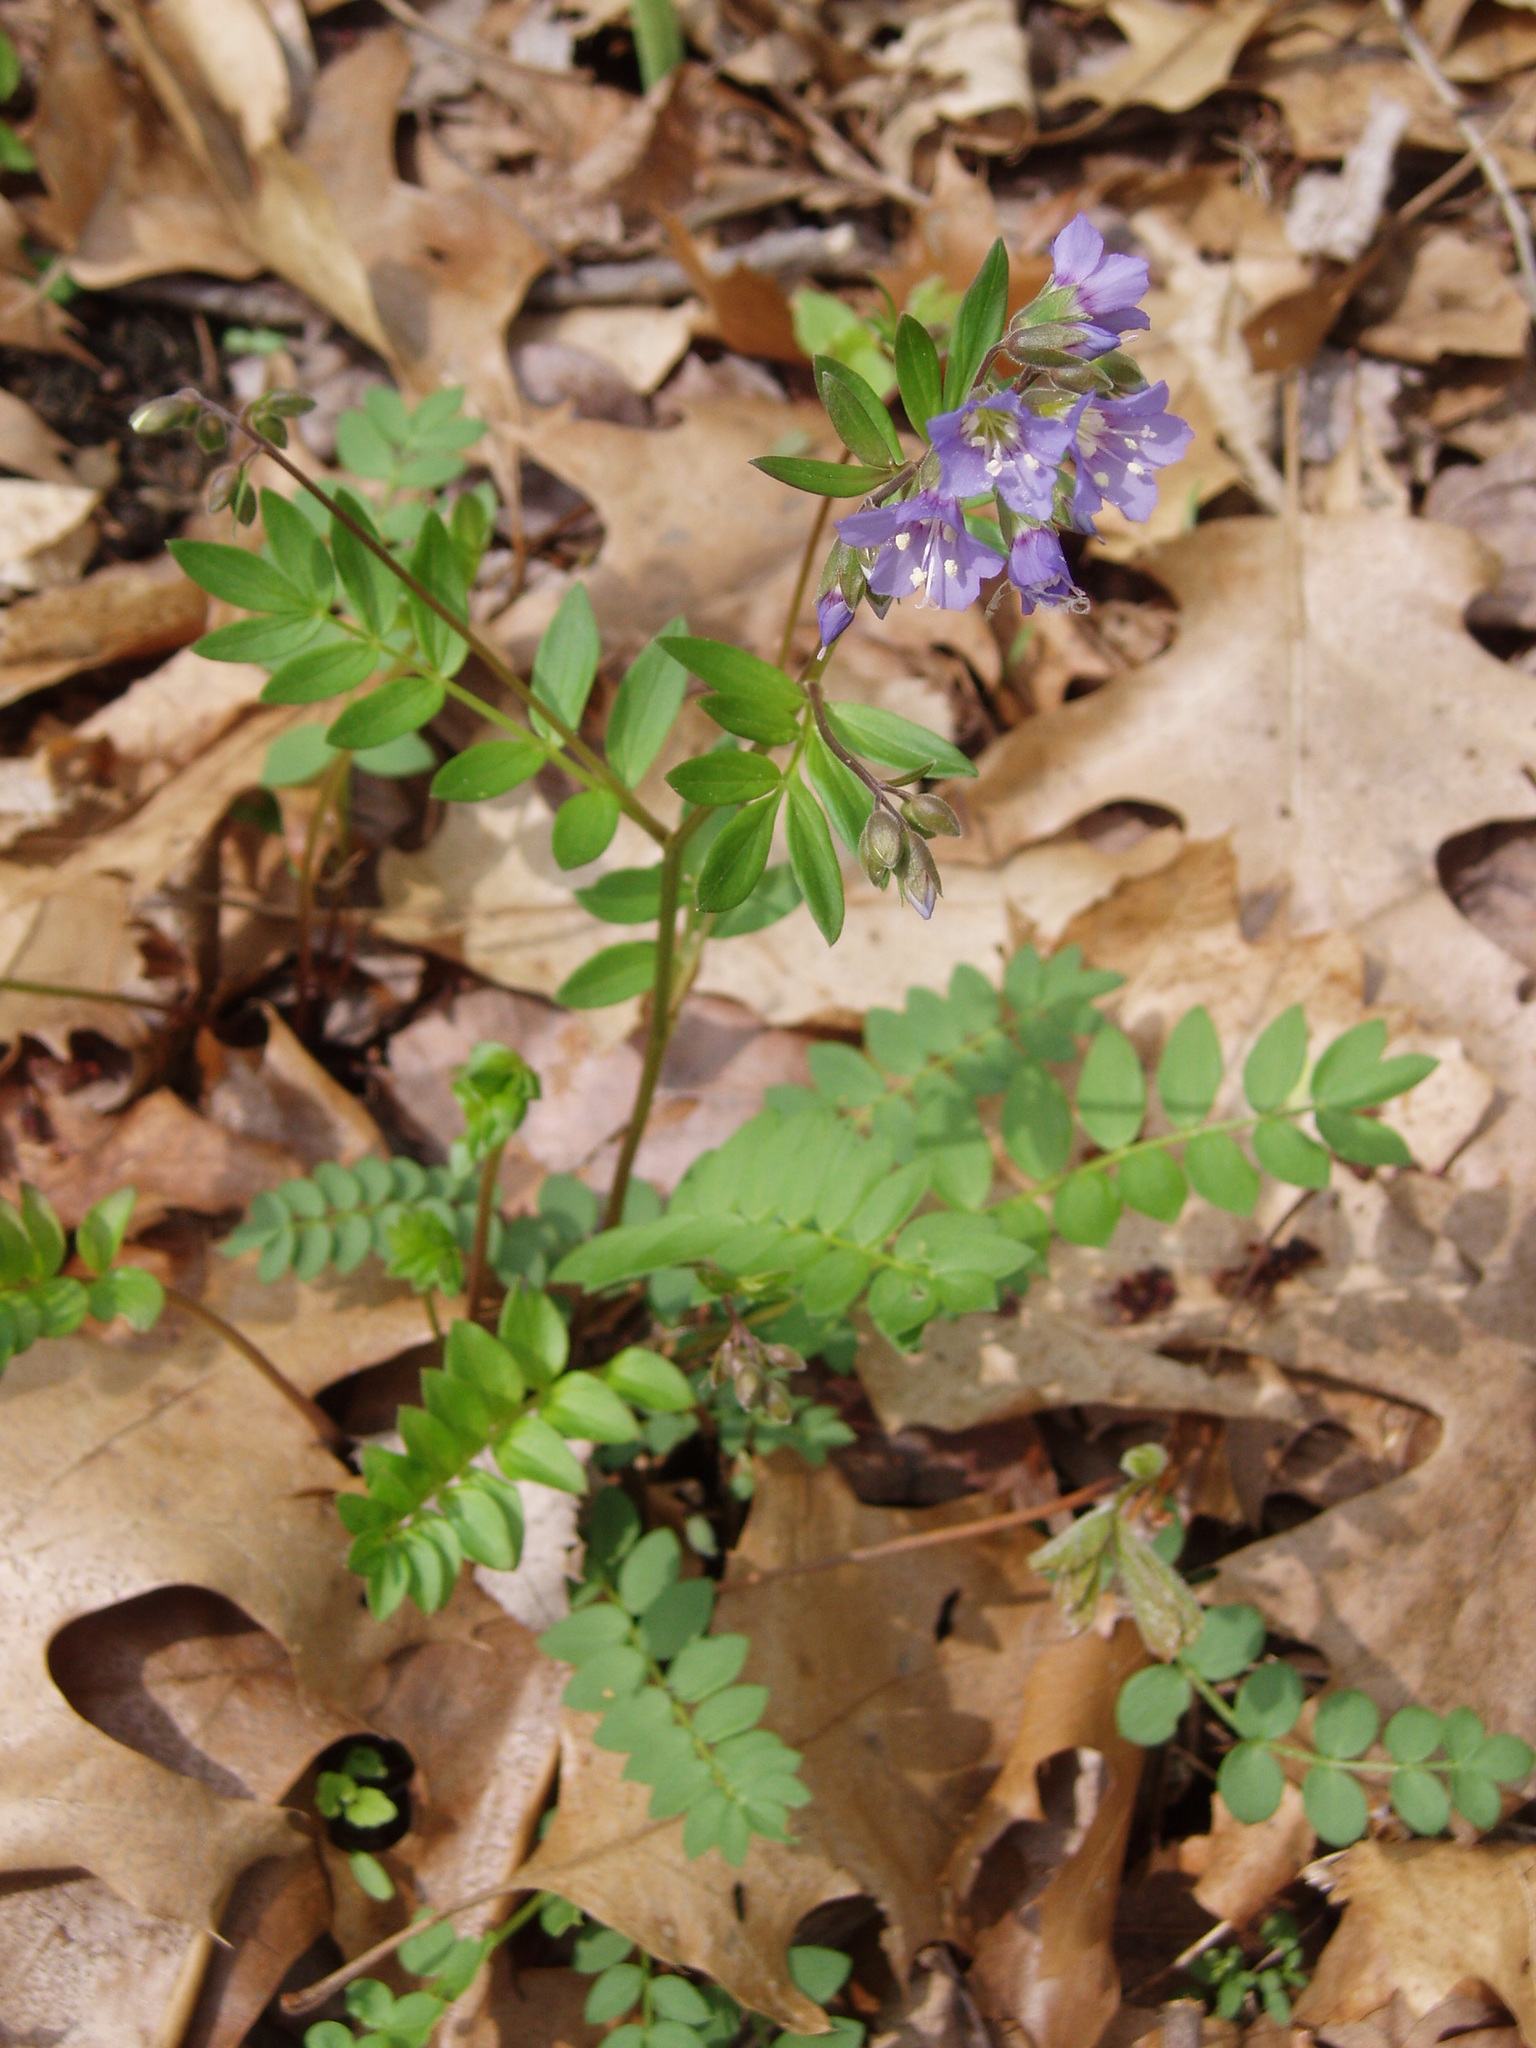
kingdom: Plantae
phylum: Tracheophyta
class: Magnoliopsida
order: Ericales
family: Polemoniaceae
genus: Polemonium
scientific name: Polemonium reptans
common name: Creeping jacob's-ladder
